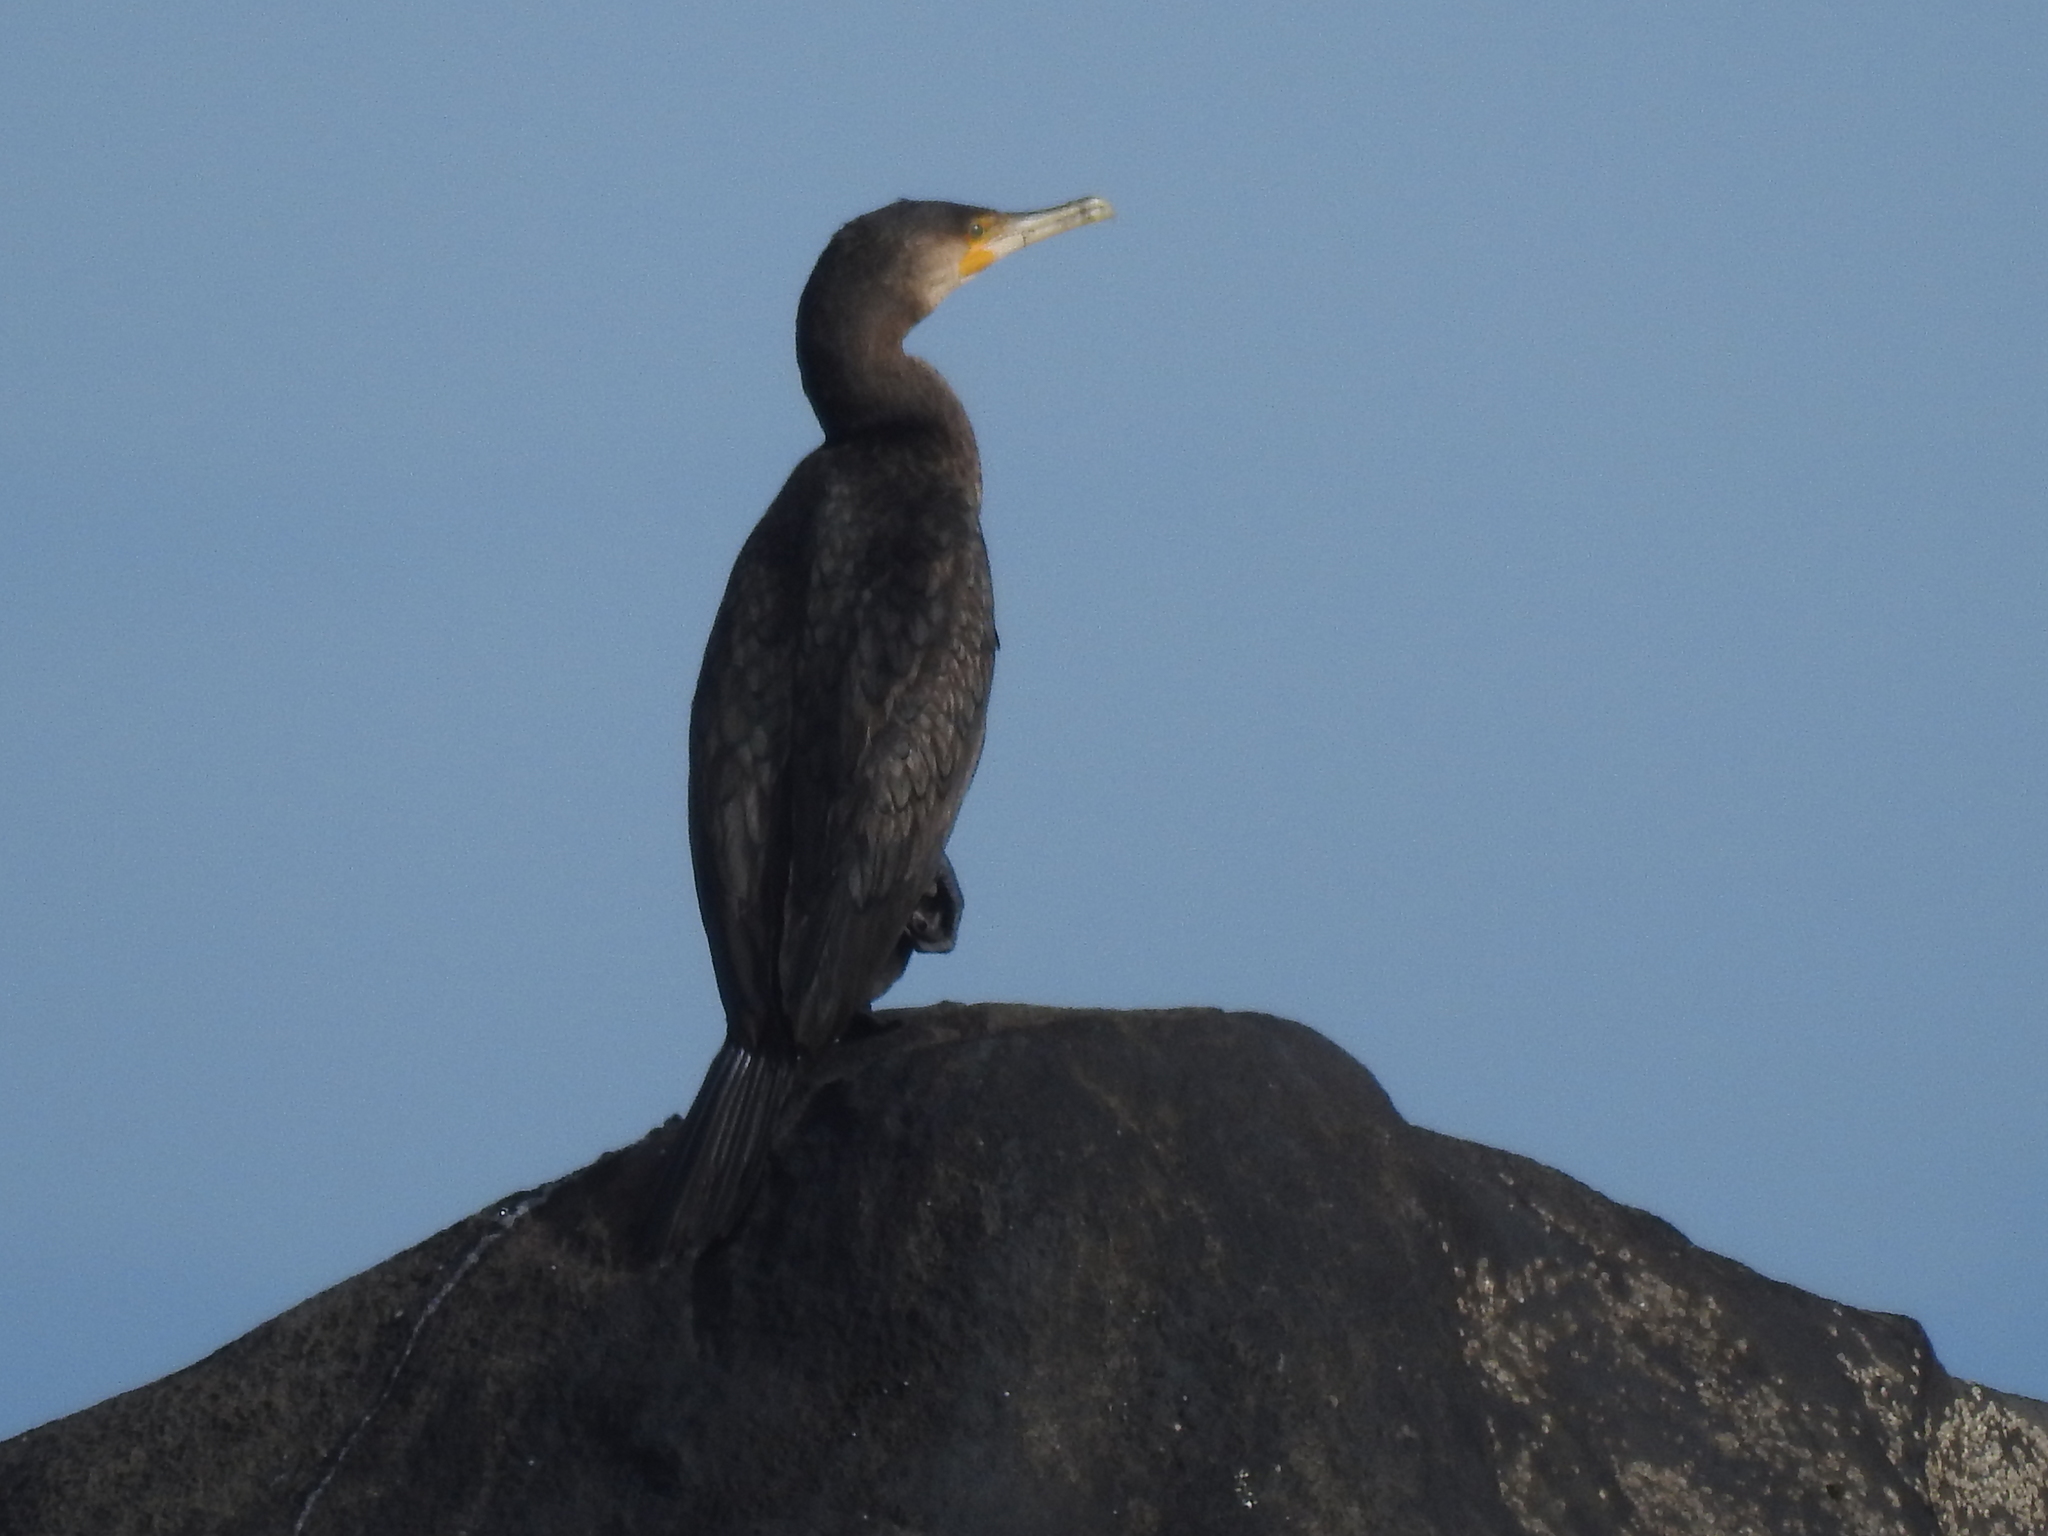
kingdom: Animalia
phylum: Chordata
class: Aves
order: Suliformes
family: Phalacrocoracidae
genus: Phalacrocorax
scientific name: Phalacrocorax carbo
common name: Great cormorant
